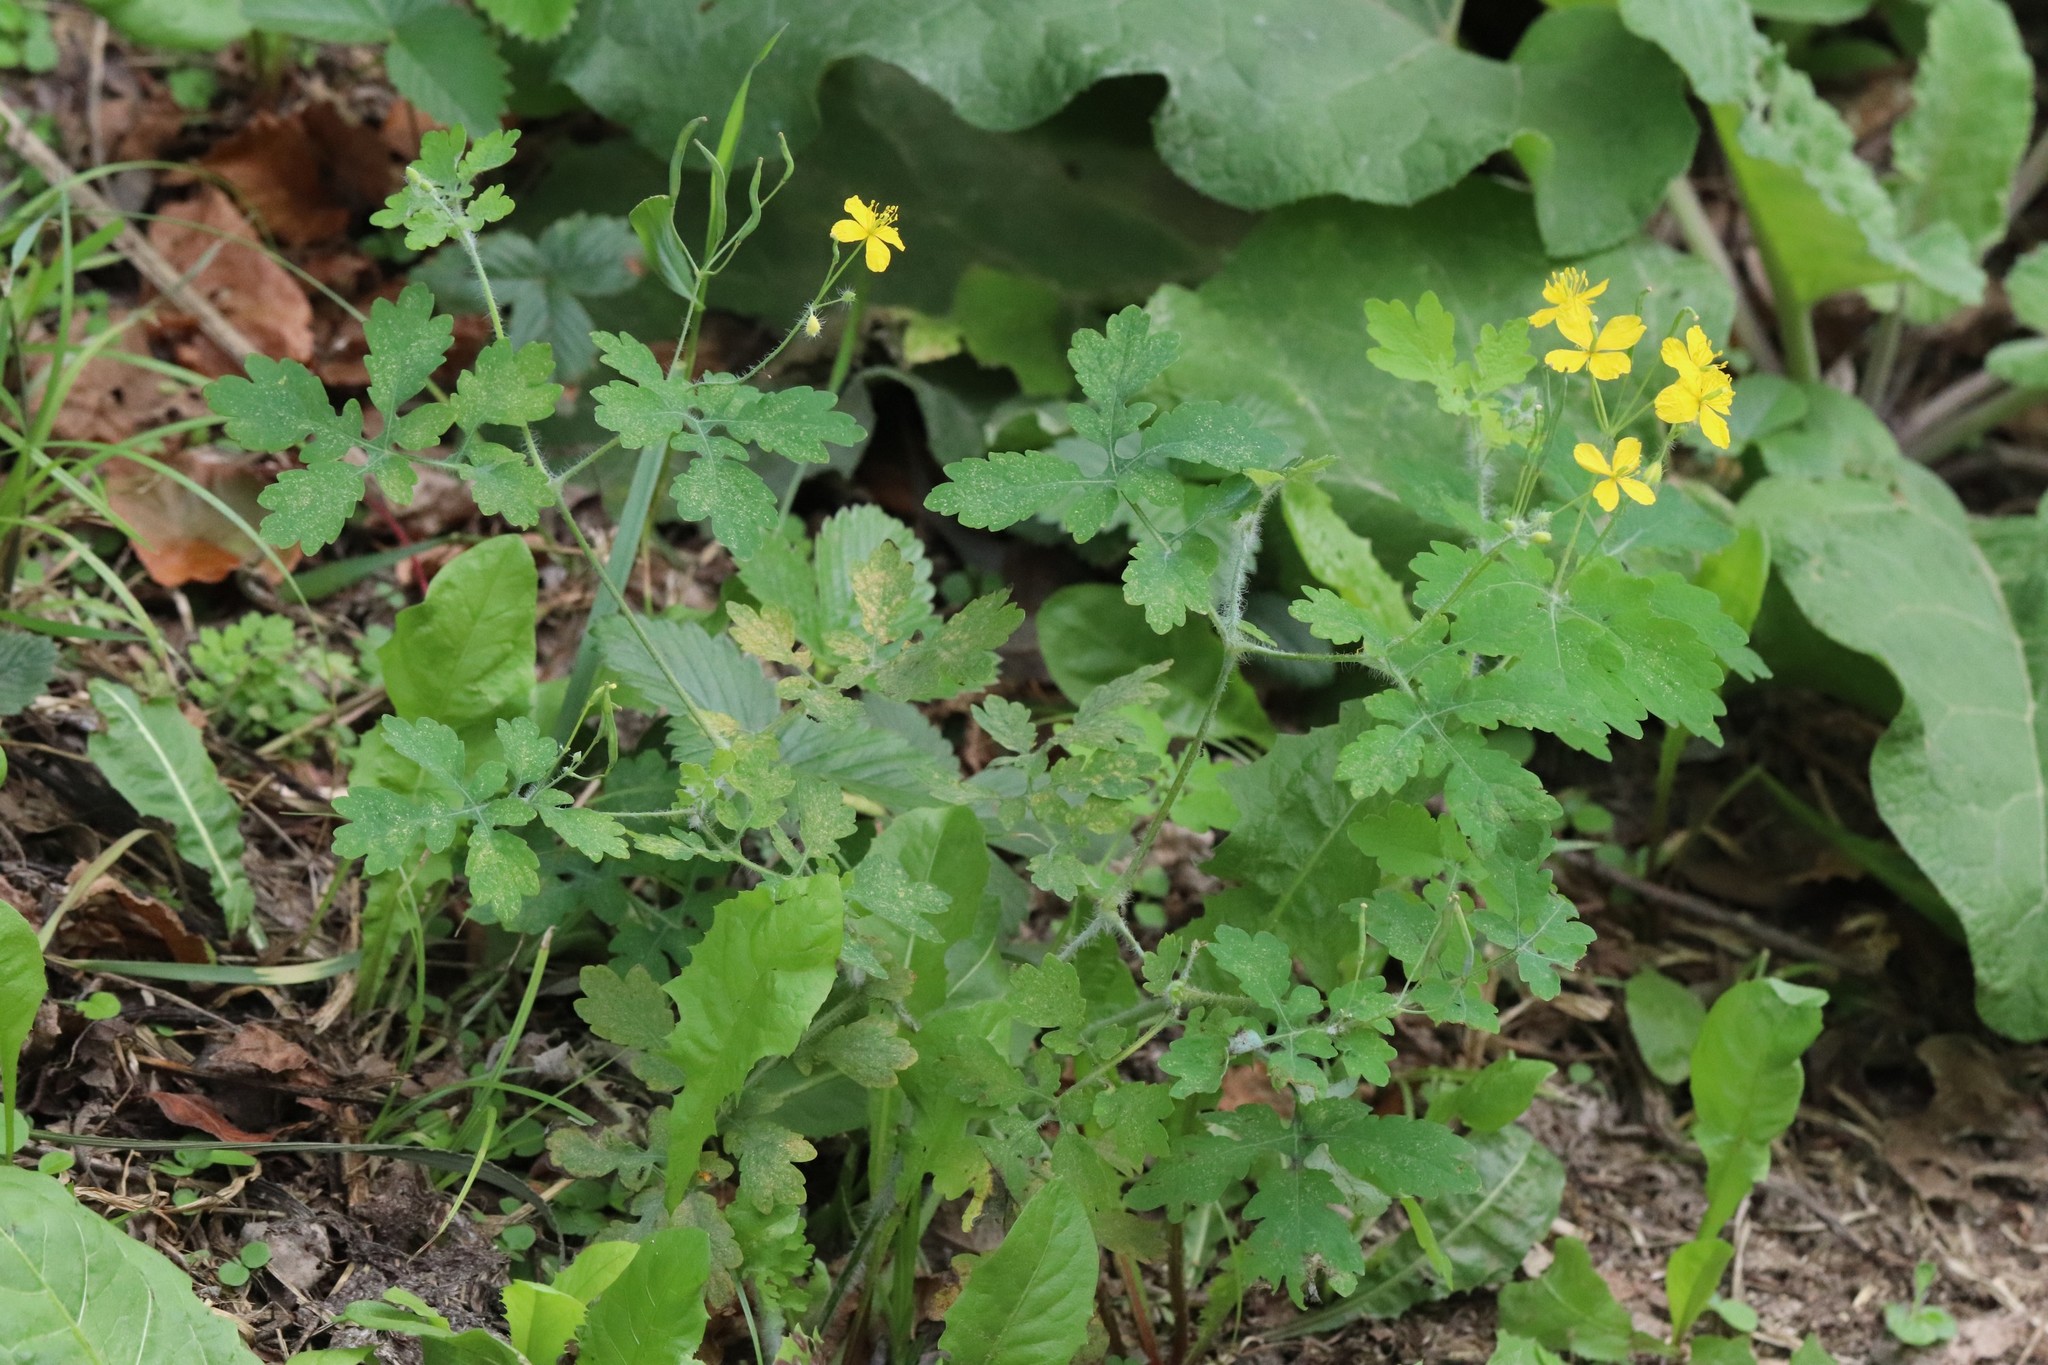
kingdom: Plantae
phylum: Tracheophyta
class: Magnoliopsida
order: Ranunculales
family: Papaveraceae
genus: Chelidonium
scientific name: Chelidonium majus
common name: Greater celandine
